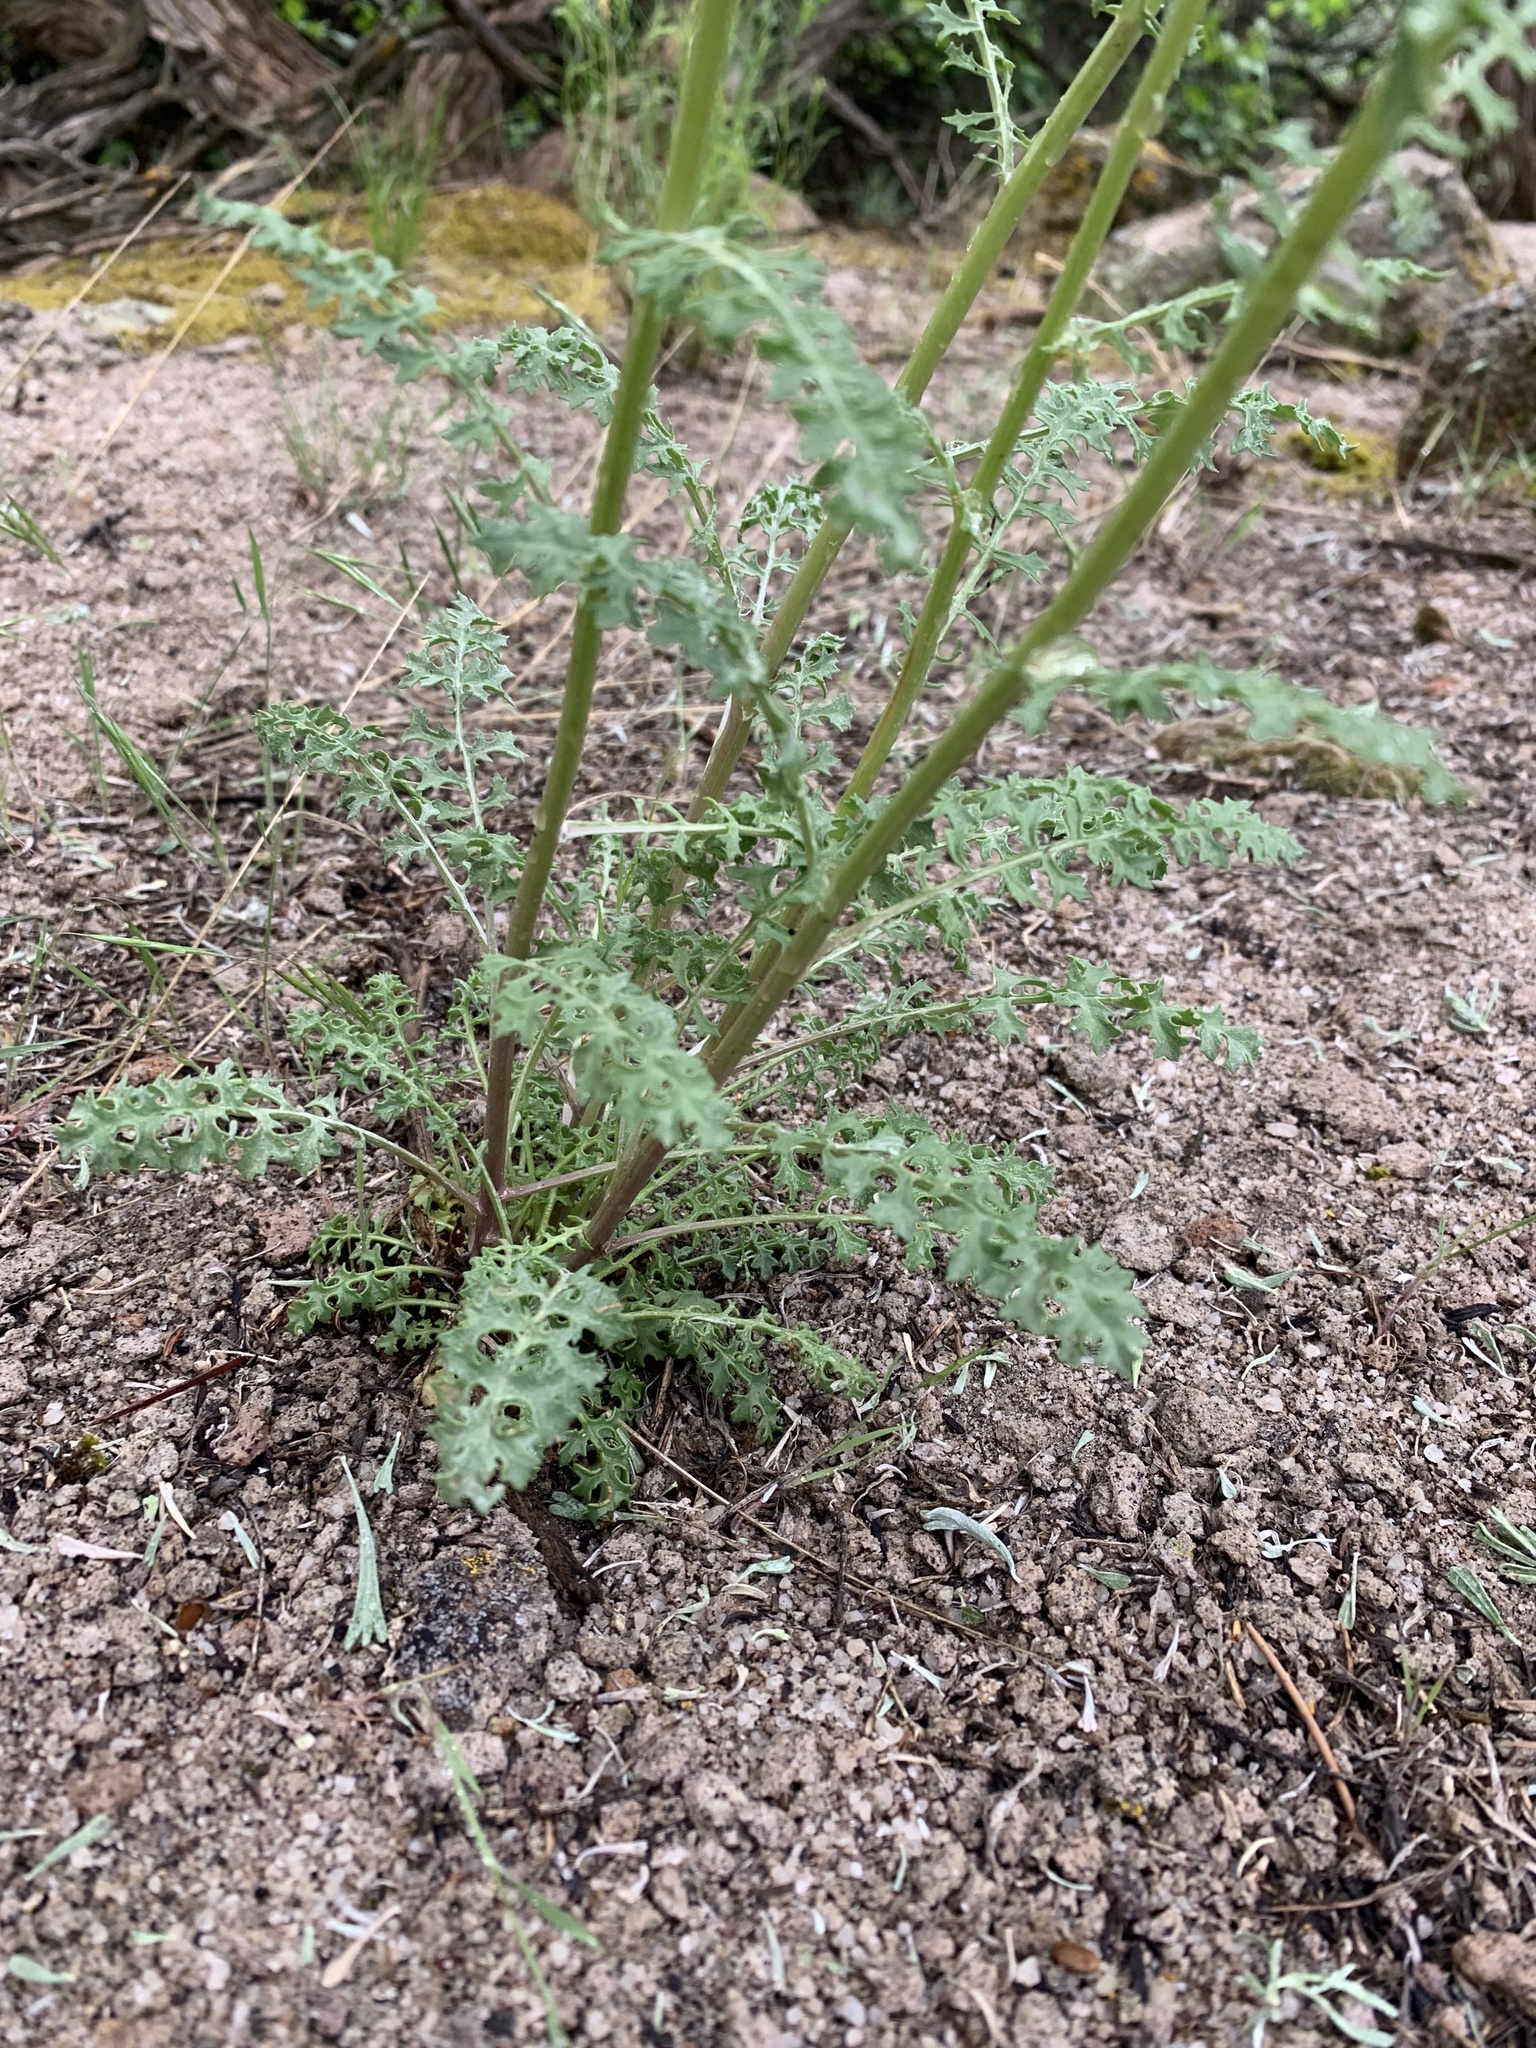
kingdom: Plantae
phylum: Tracheophyta
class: Magnoliopsida
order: Asterales
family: Asteraceae
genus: Packera
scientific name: Packera multilobata
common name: Lobe-leaf groundsel
